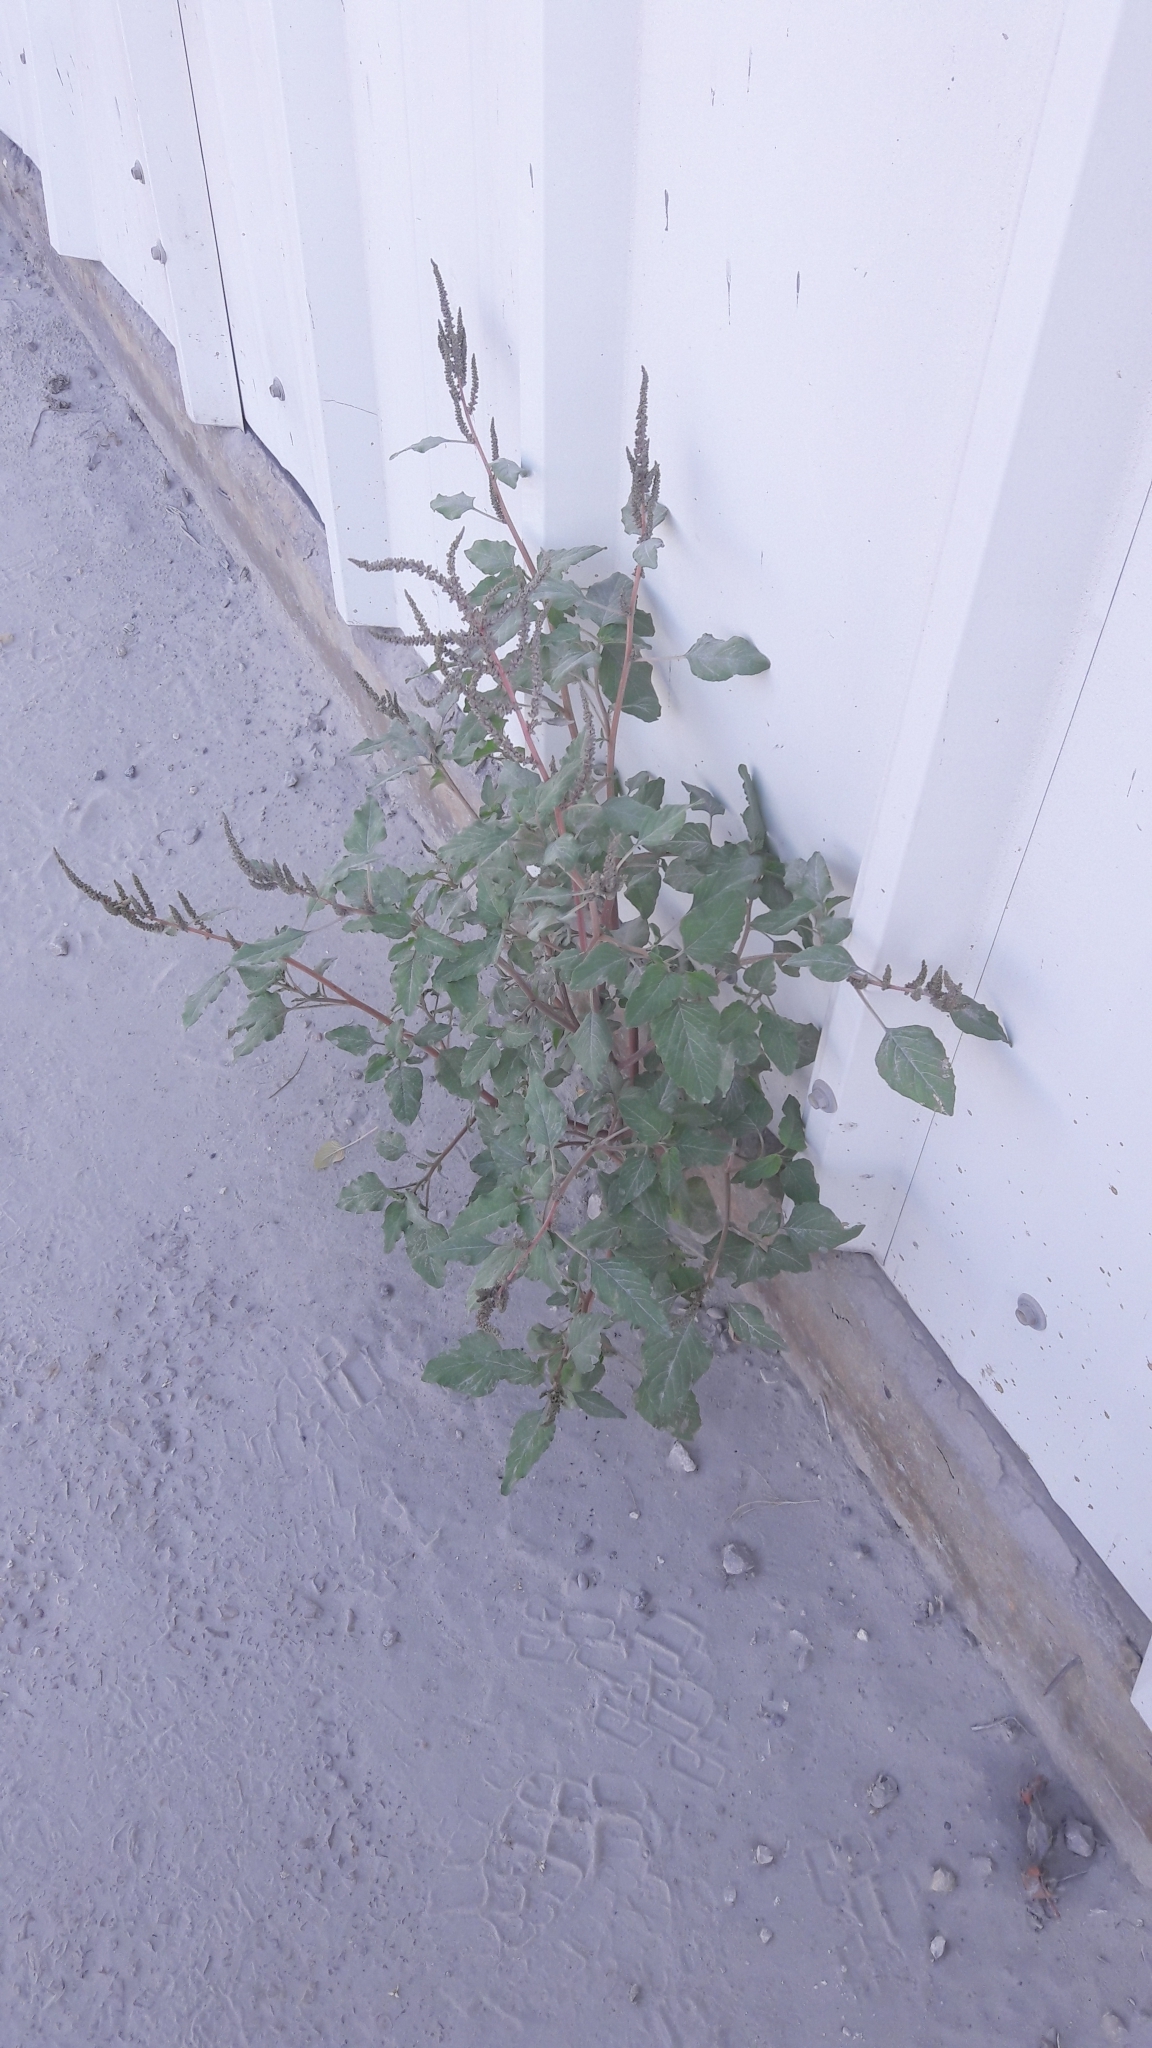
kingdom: Plantae
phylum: Tracheophyta
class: Magnoliopsida
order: Caryophyllales
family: Amaranthaceae
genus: Amaranthus
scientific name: Amaranthus retroflexus
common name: Redroot amaranth
